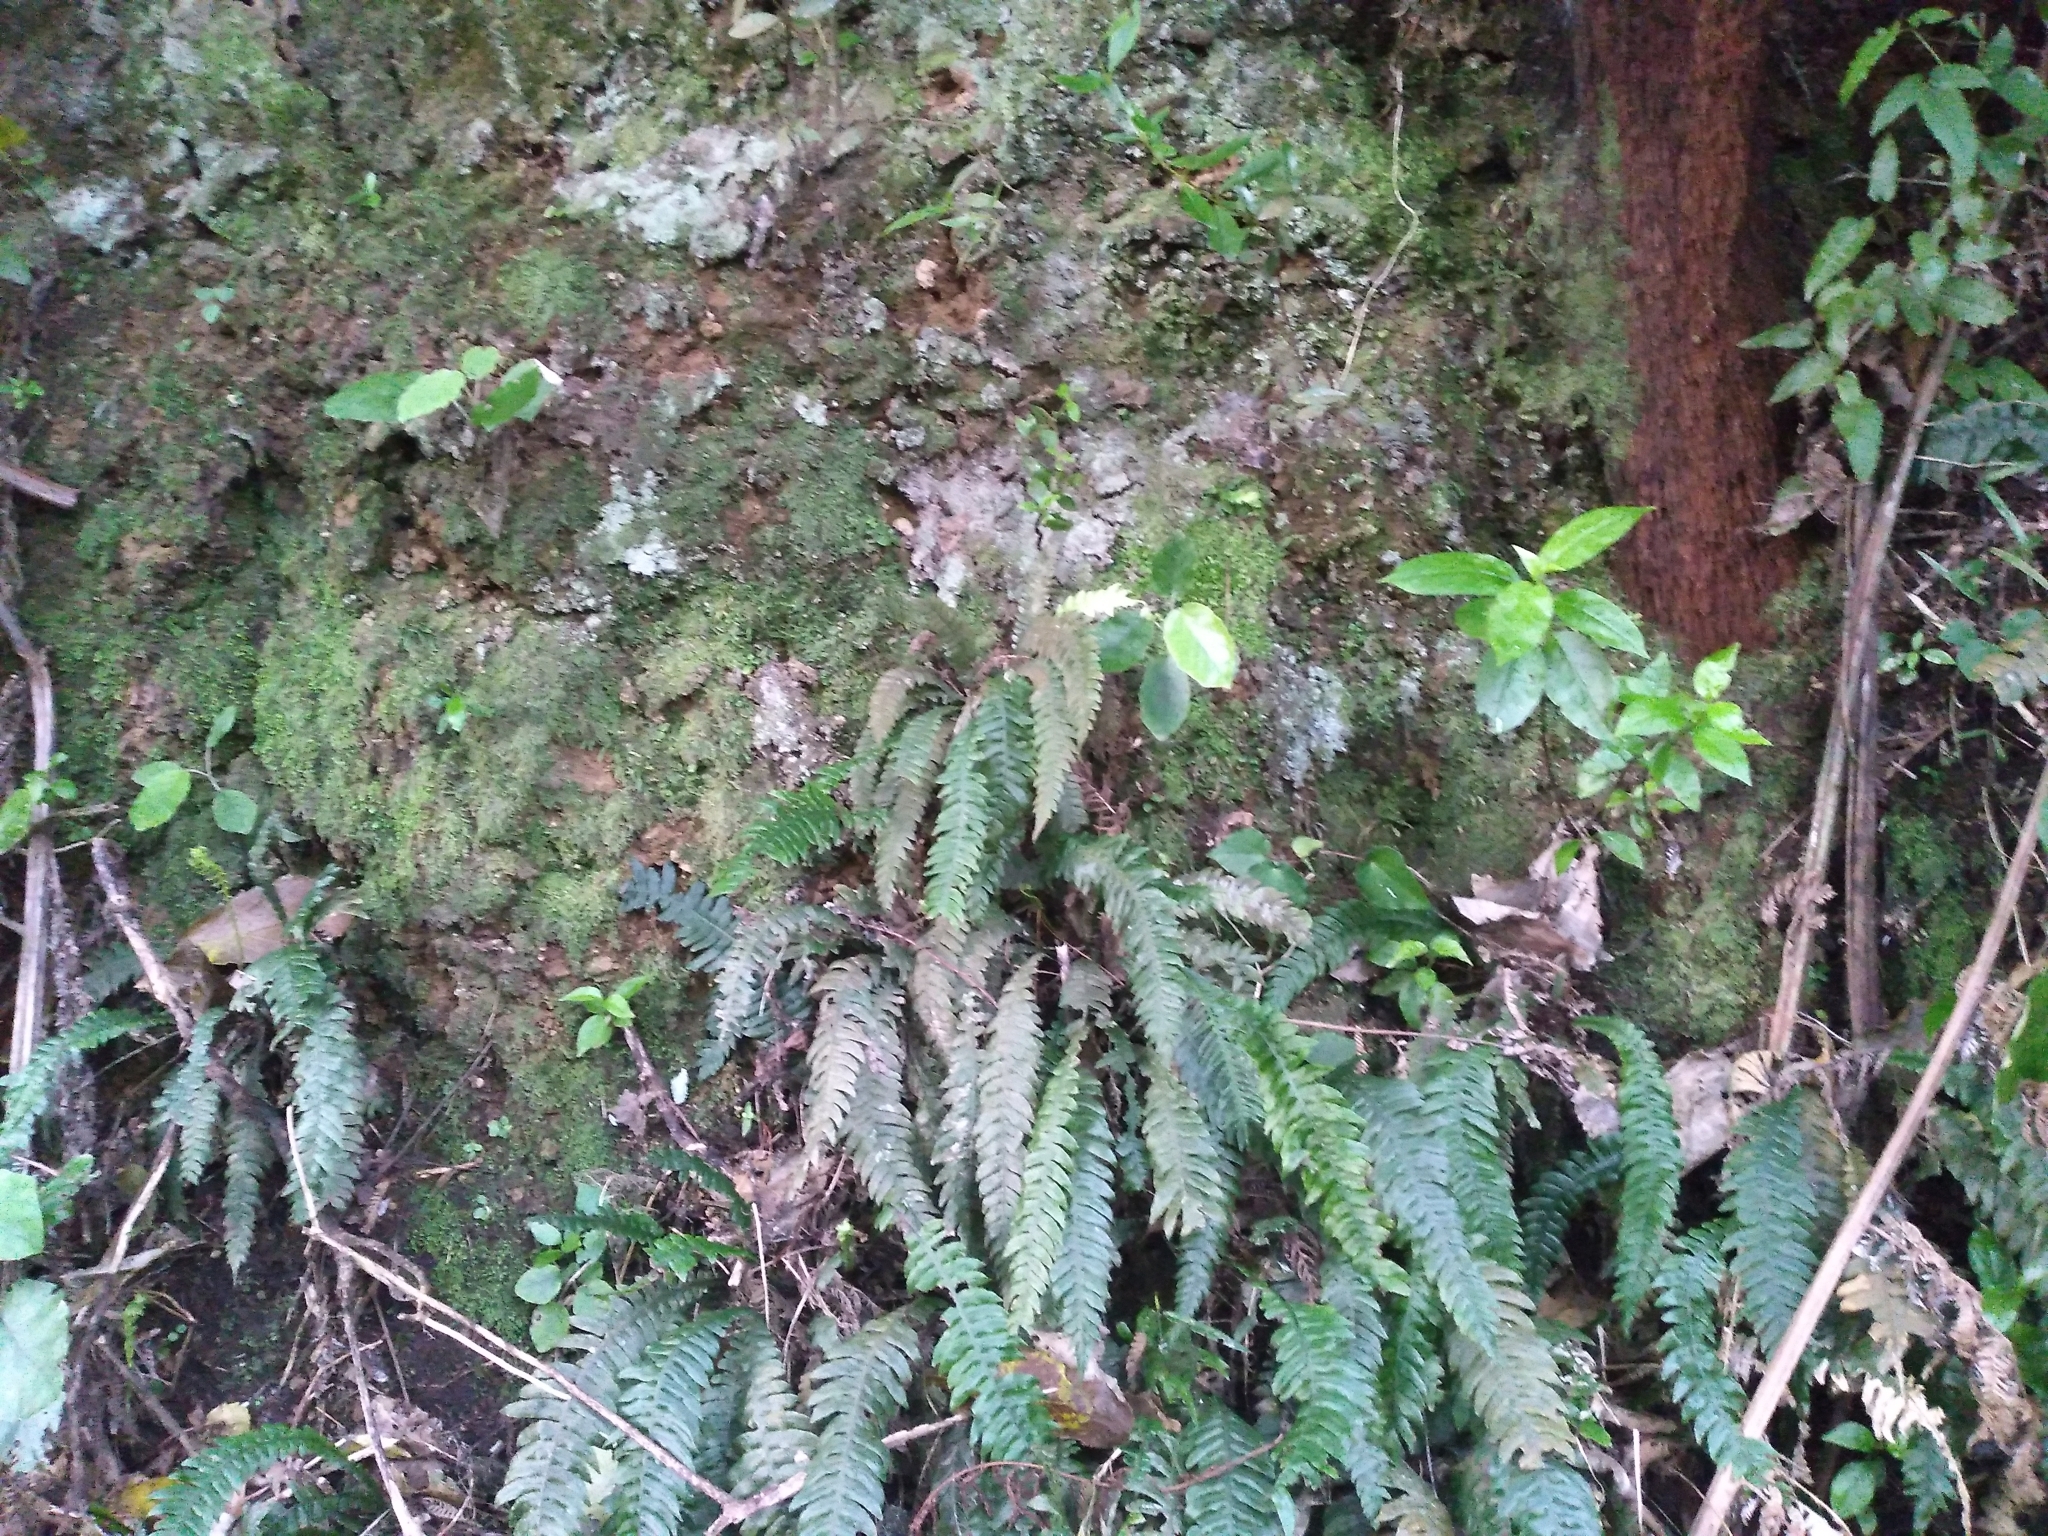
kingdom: Plantae
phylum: Tracheophyta
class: Polypodiopsida
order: Polypodiales
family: Polypodiaceae
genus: Notogrammitis
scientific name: Notogrammitis ciliata
